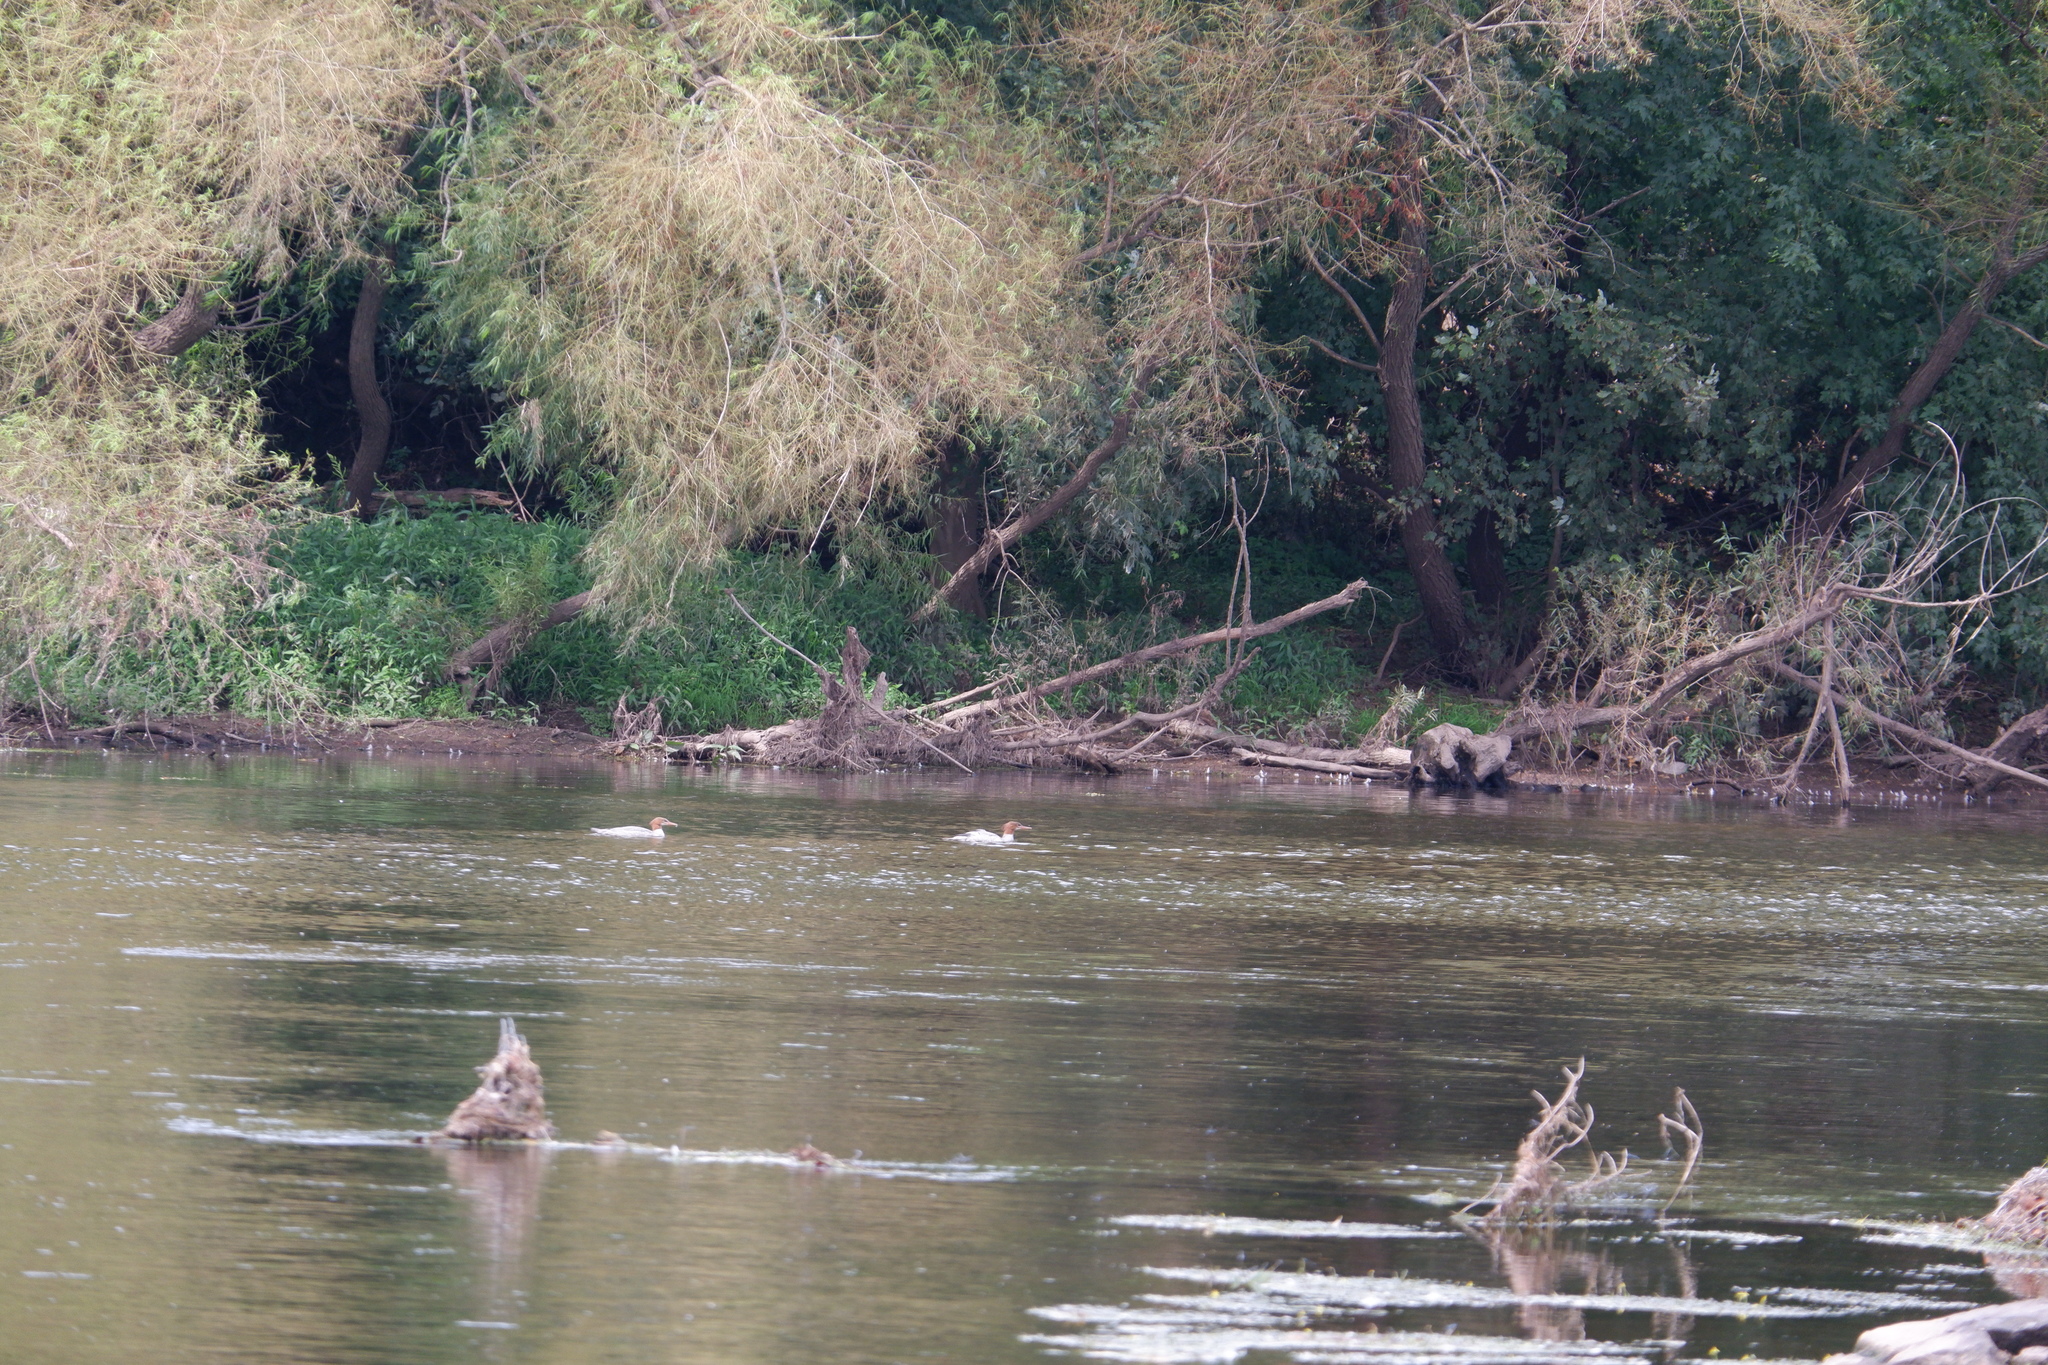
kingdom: Animalia
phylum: Chordata
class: Aves
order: Anseriformes
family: Anatidae
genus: Mergus
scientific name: Mergus merganser
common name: Common merganser
